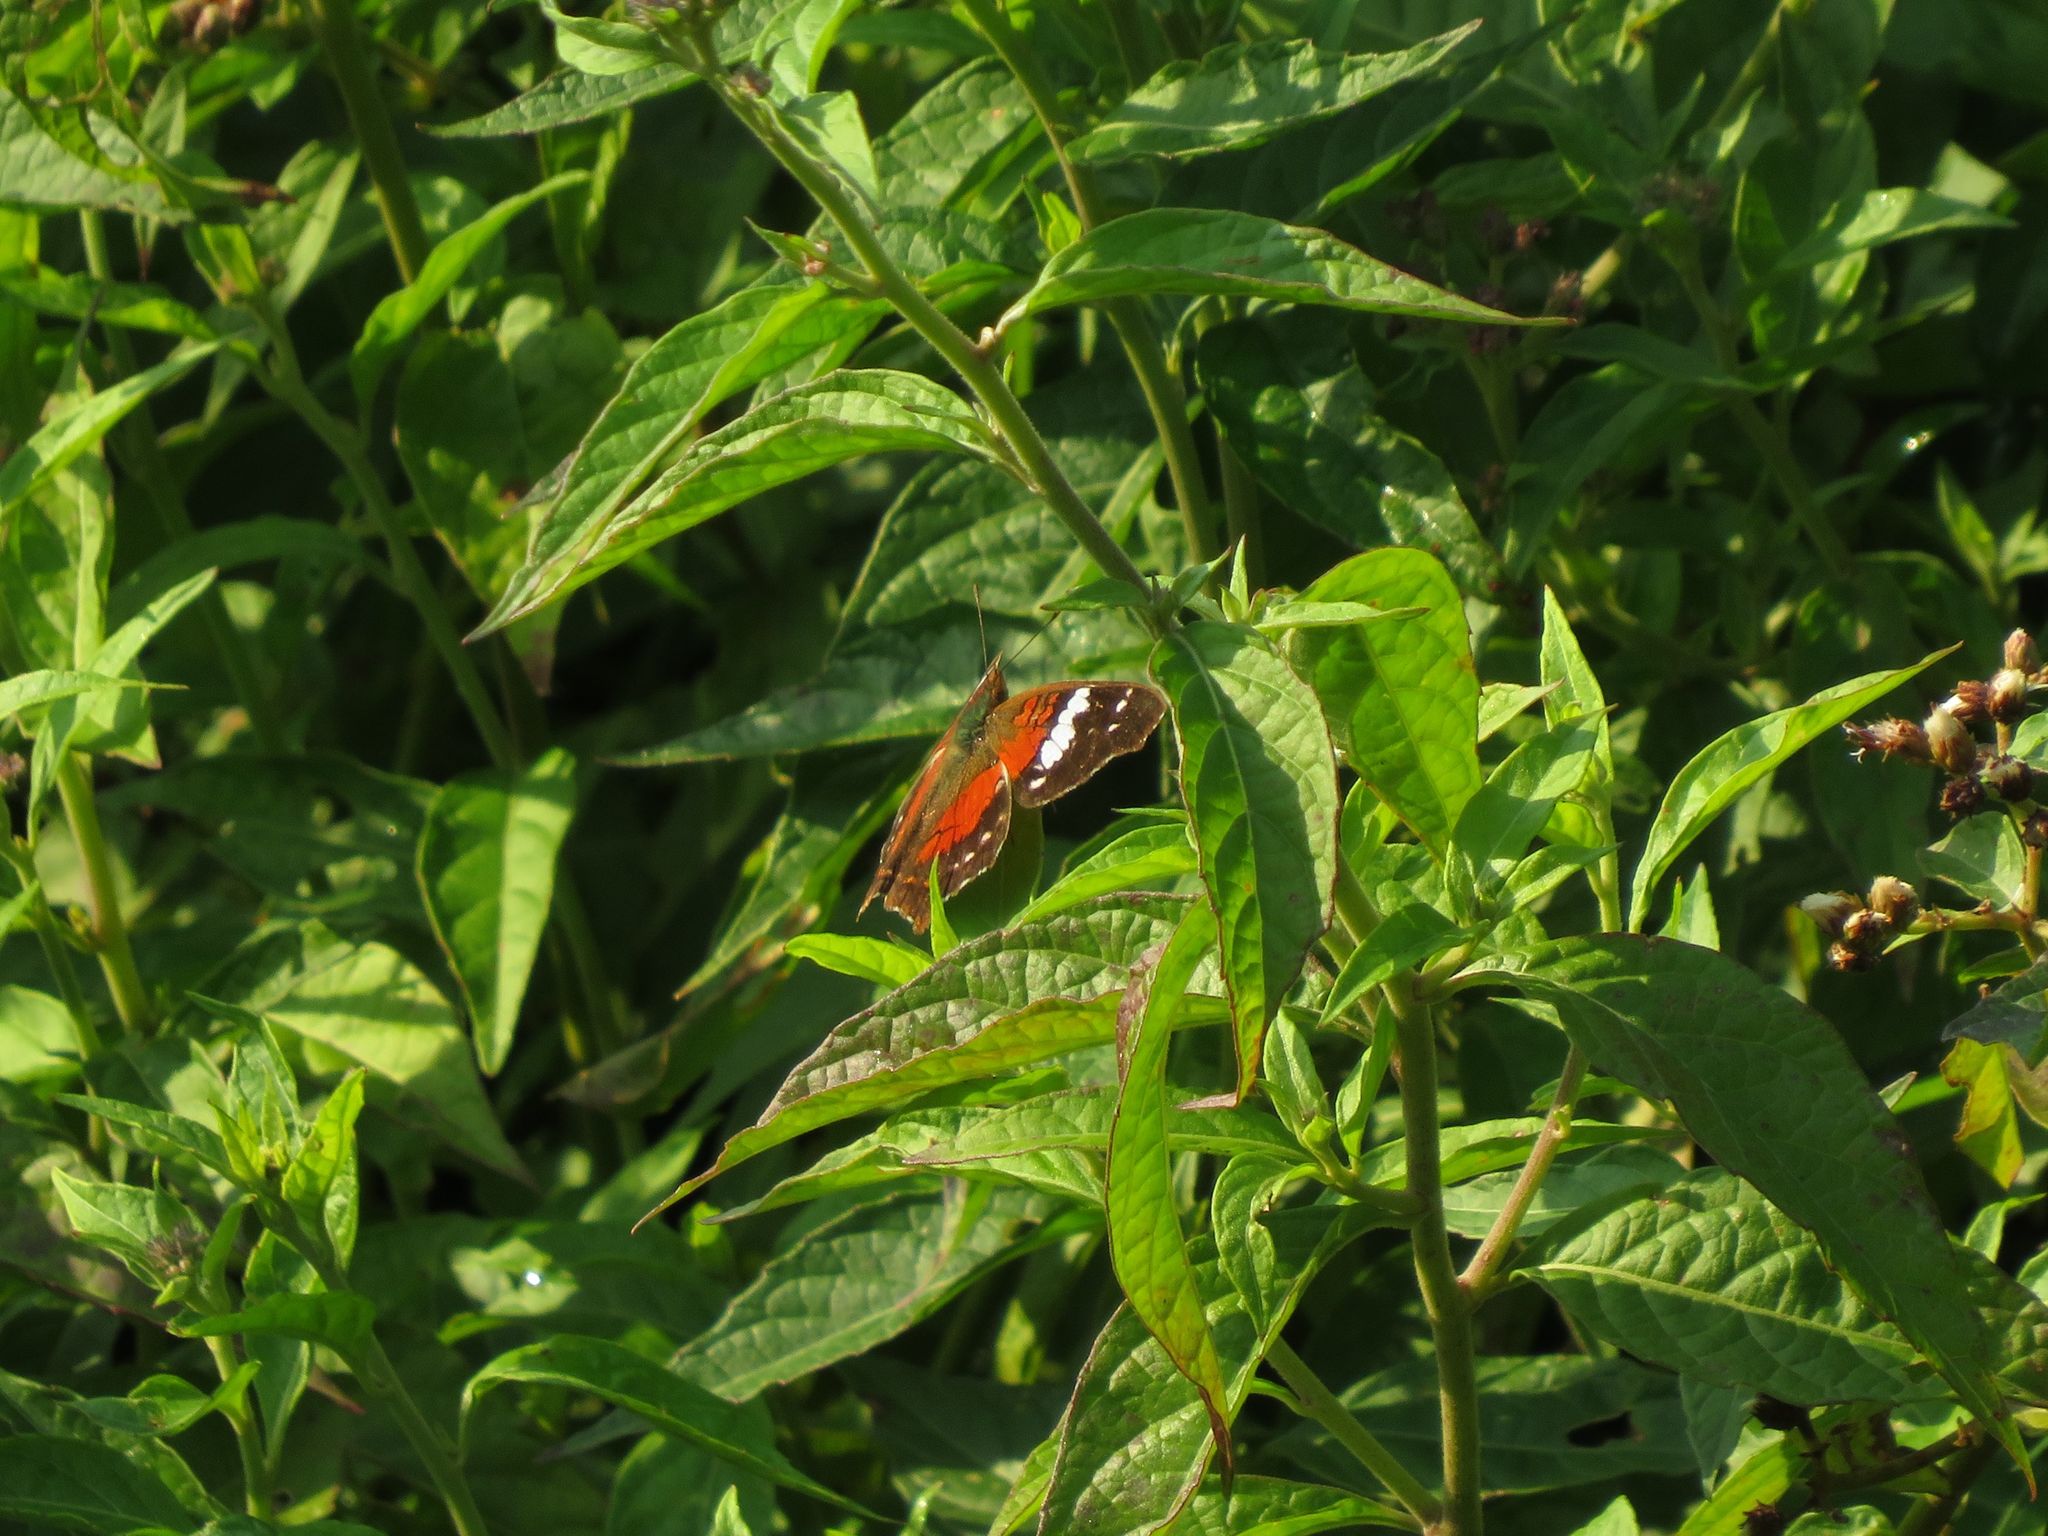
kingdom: Animalia
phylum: Arthropoda
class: Insecta
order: Lepidoptera
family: Nymphalidae
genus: Anartia
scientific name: Anartia amathea
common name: Red peacock
